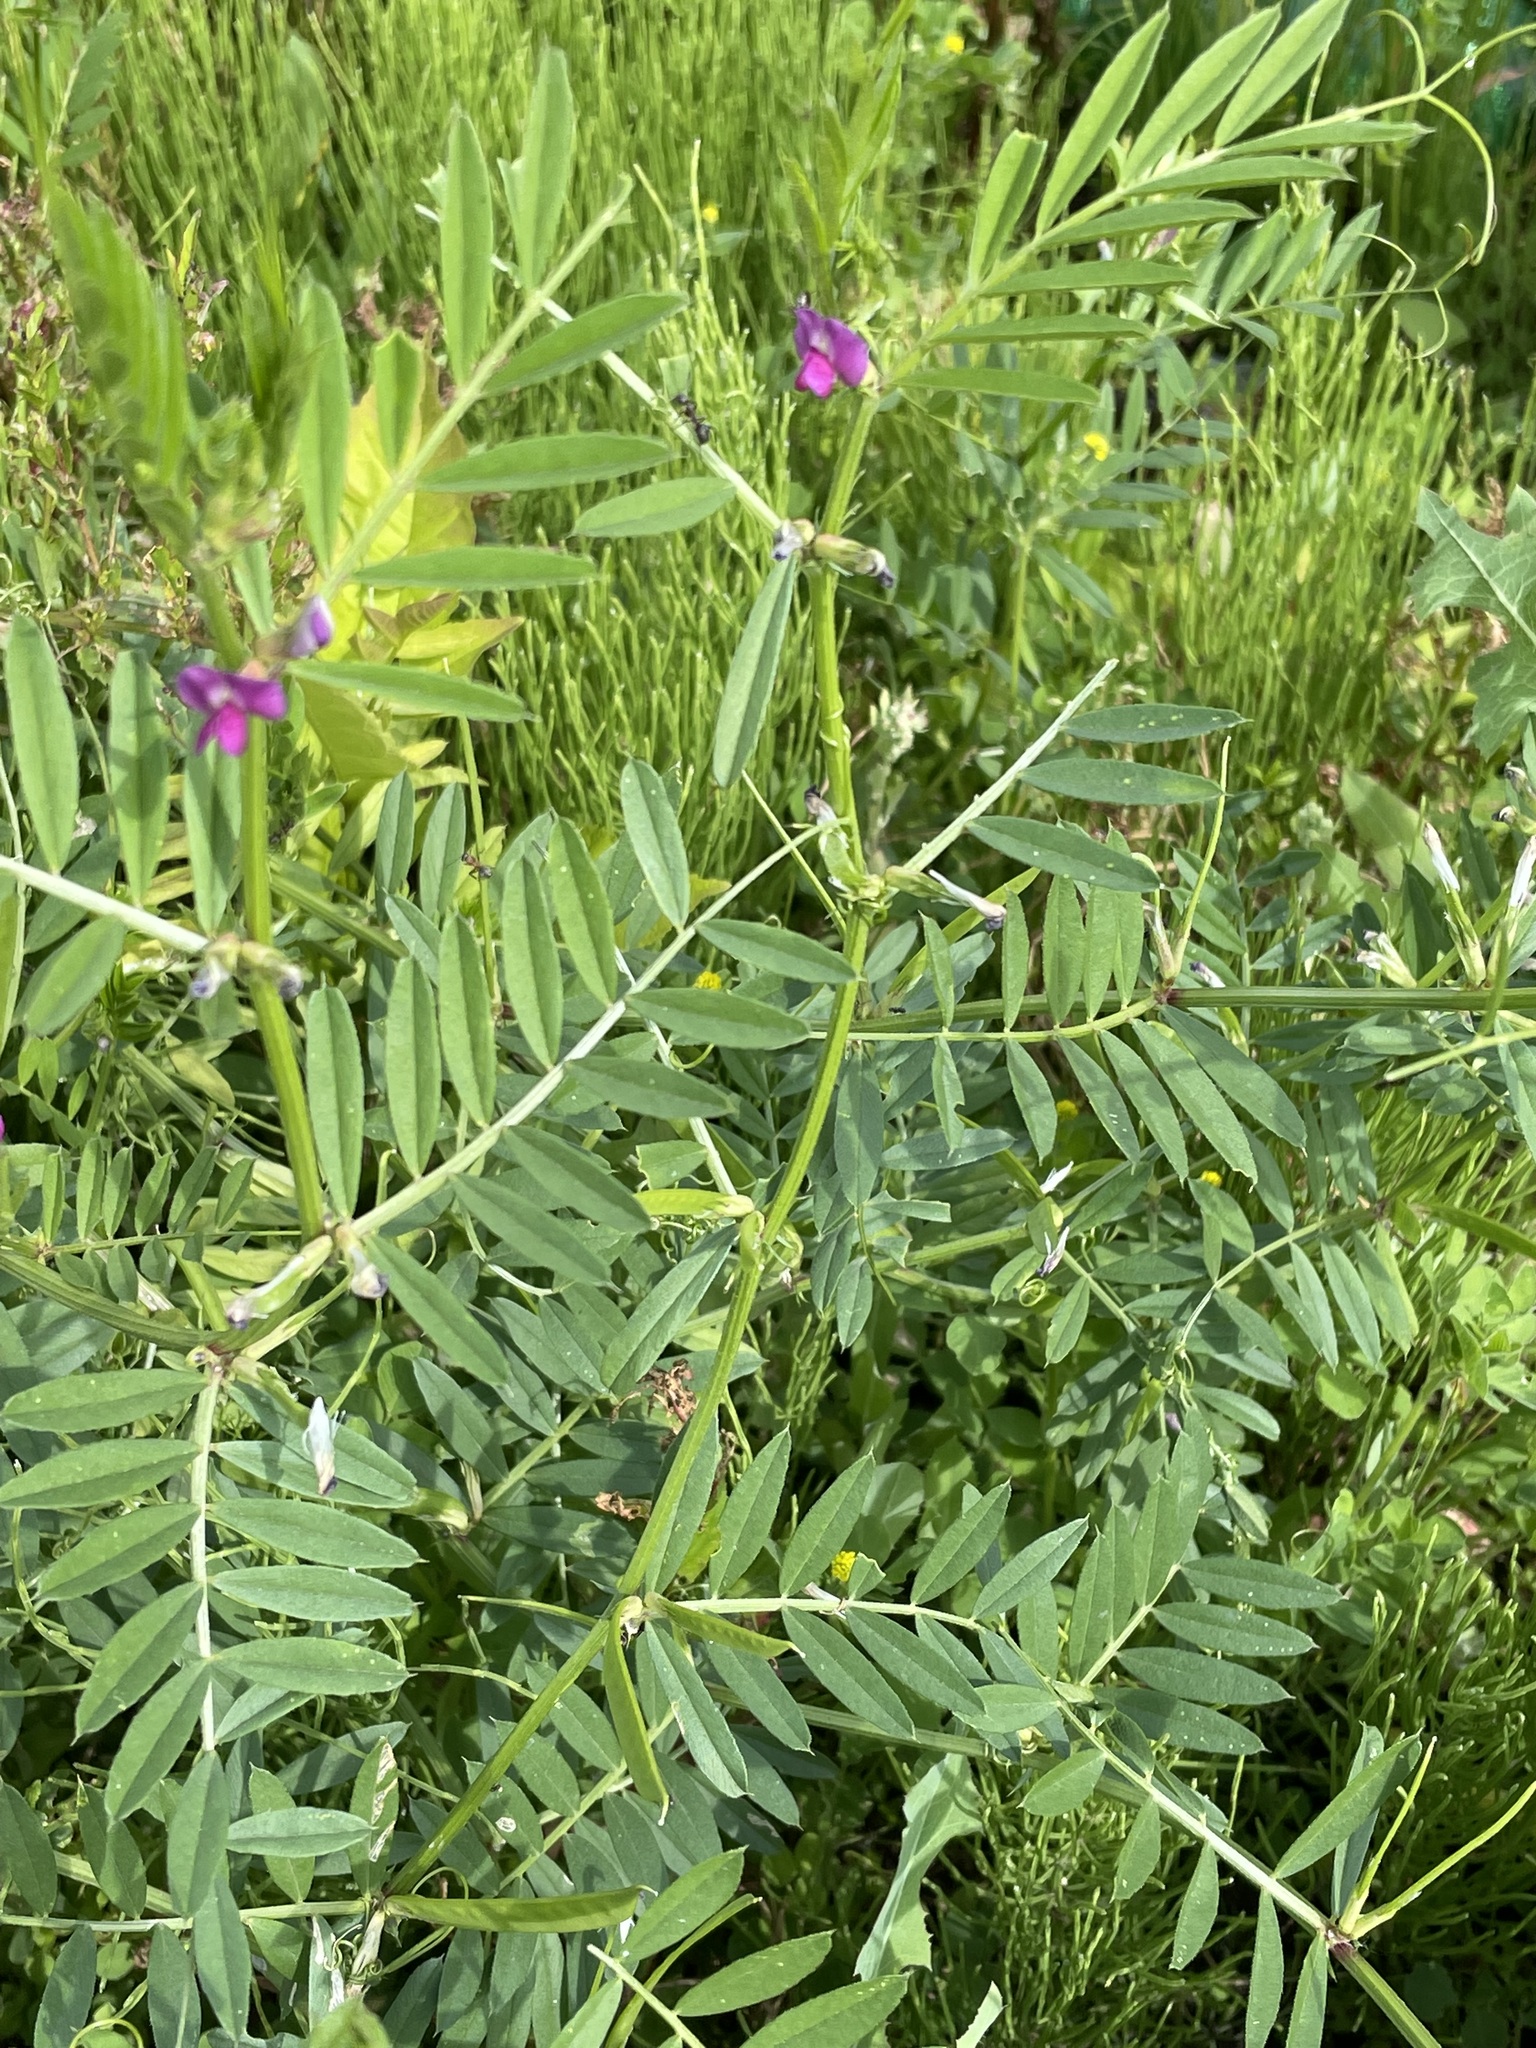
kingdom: Plantae
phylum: Tracheophyta
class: Magnoliopsida
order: Fabales
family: Fabaceae
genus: Vicia
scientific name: Vicia sativa
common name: Garden vetch
